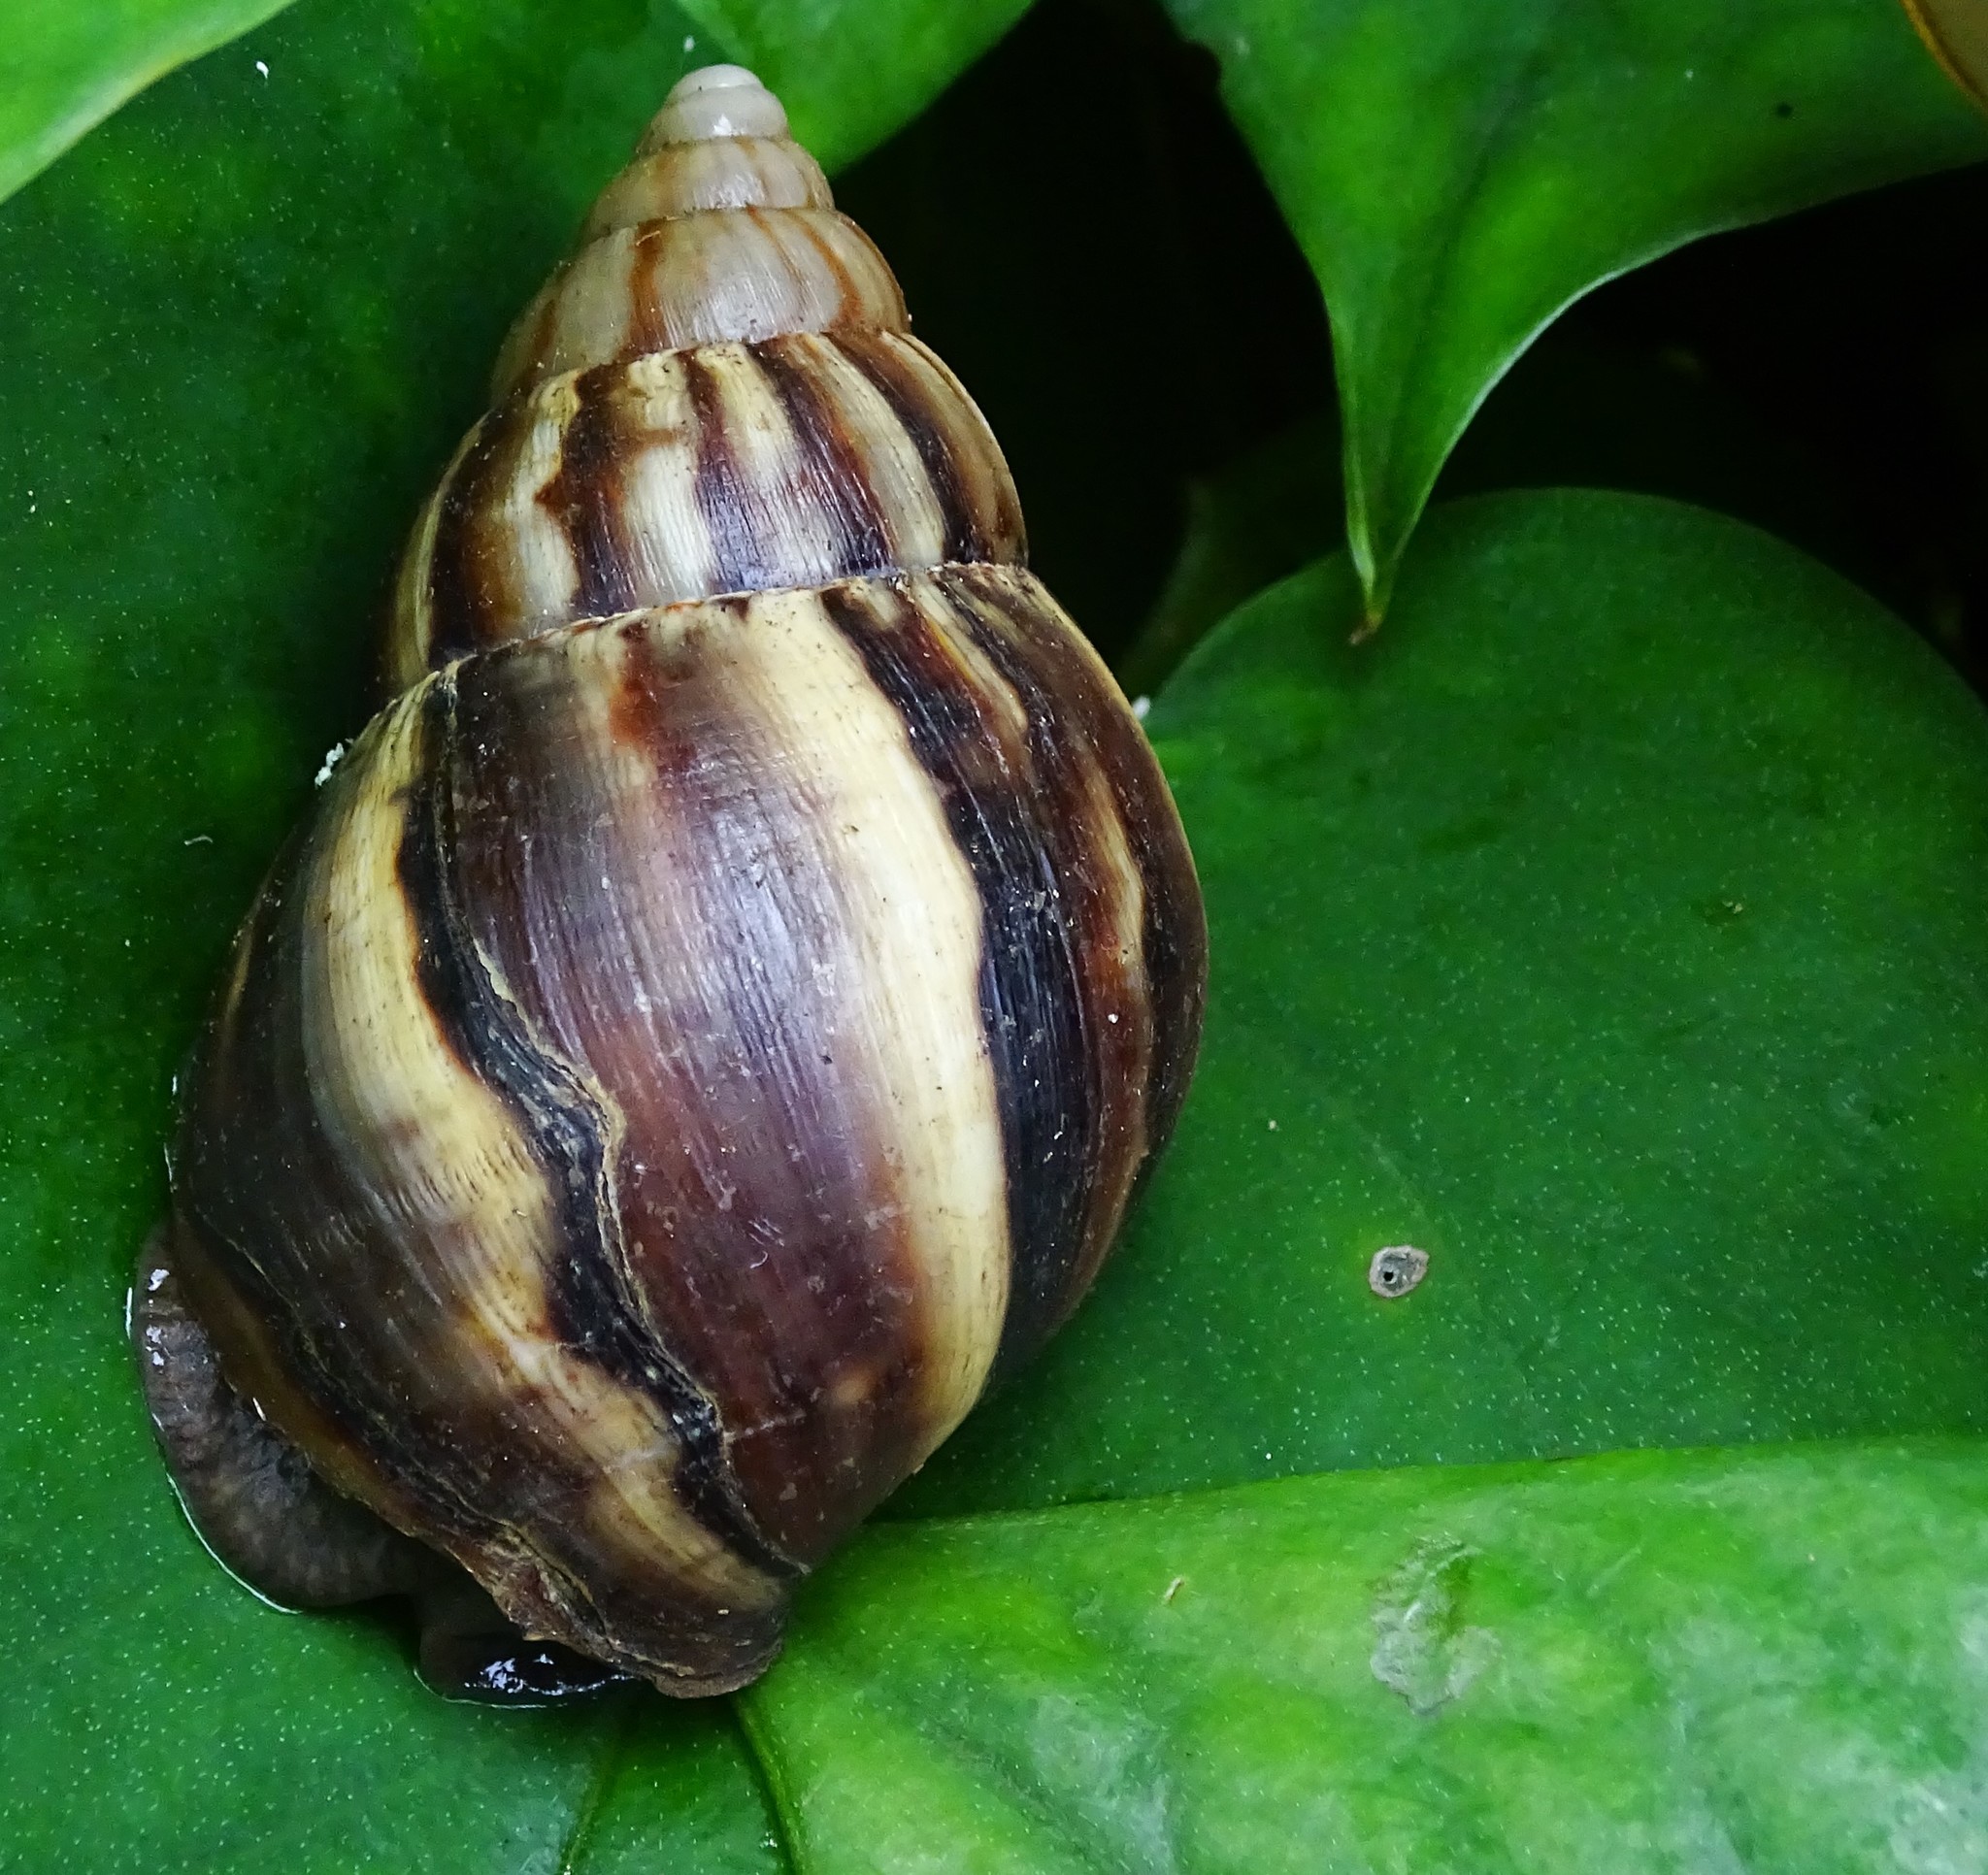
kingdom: Animalia
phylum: Mollusca
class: Gastropoda
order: Stylommatophora
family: Achatinidae
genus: Lissachatina
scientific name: Lissachatina fulica
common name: Giant african snail
